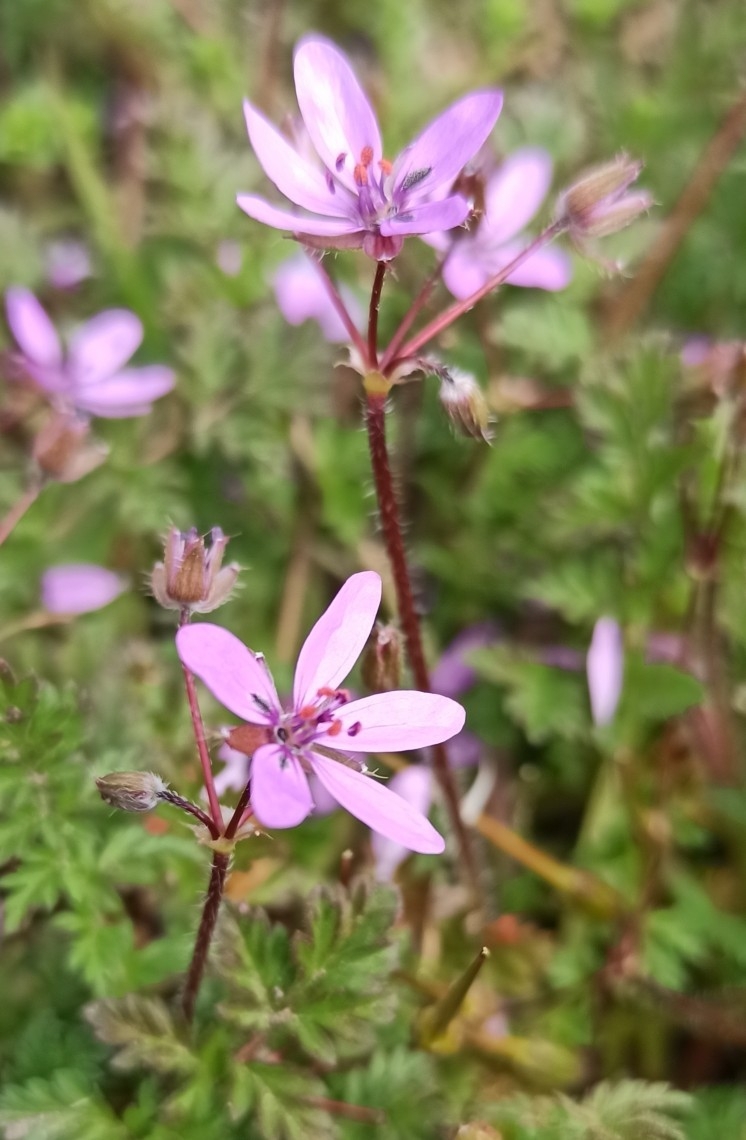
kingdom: Plantae
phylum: Tracheophyta
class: Magnoliopsida
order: Geraniales
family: Geraniaceae
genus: Erodium
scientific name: Erodium cicutarium
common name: Common stork's-bill
